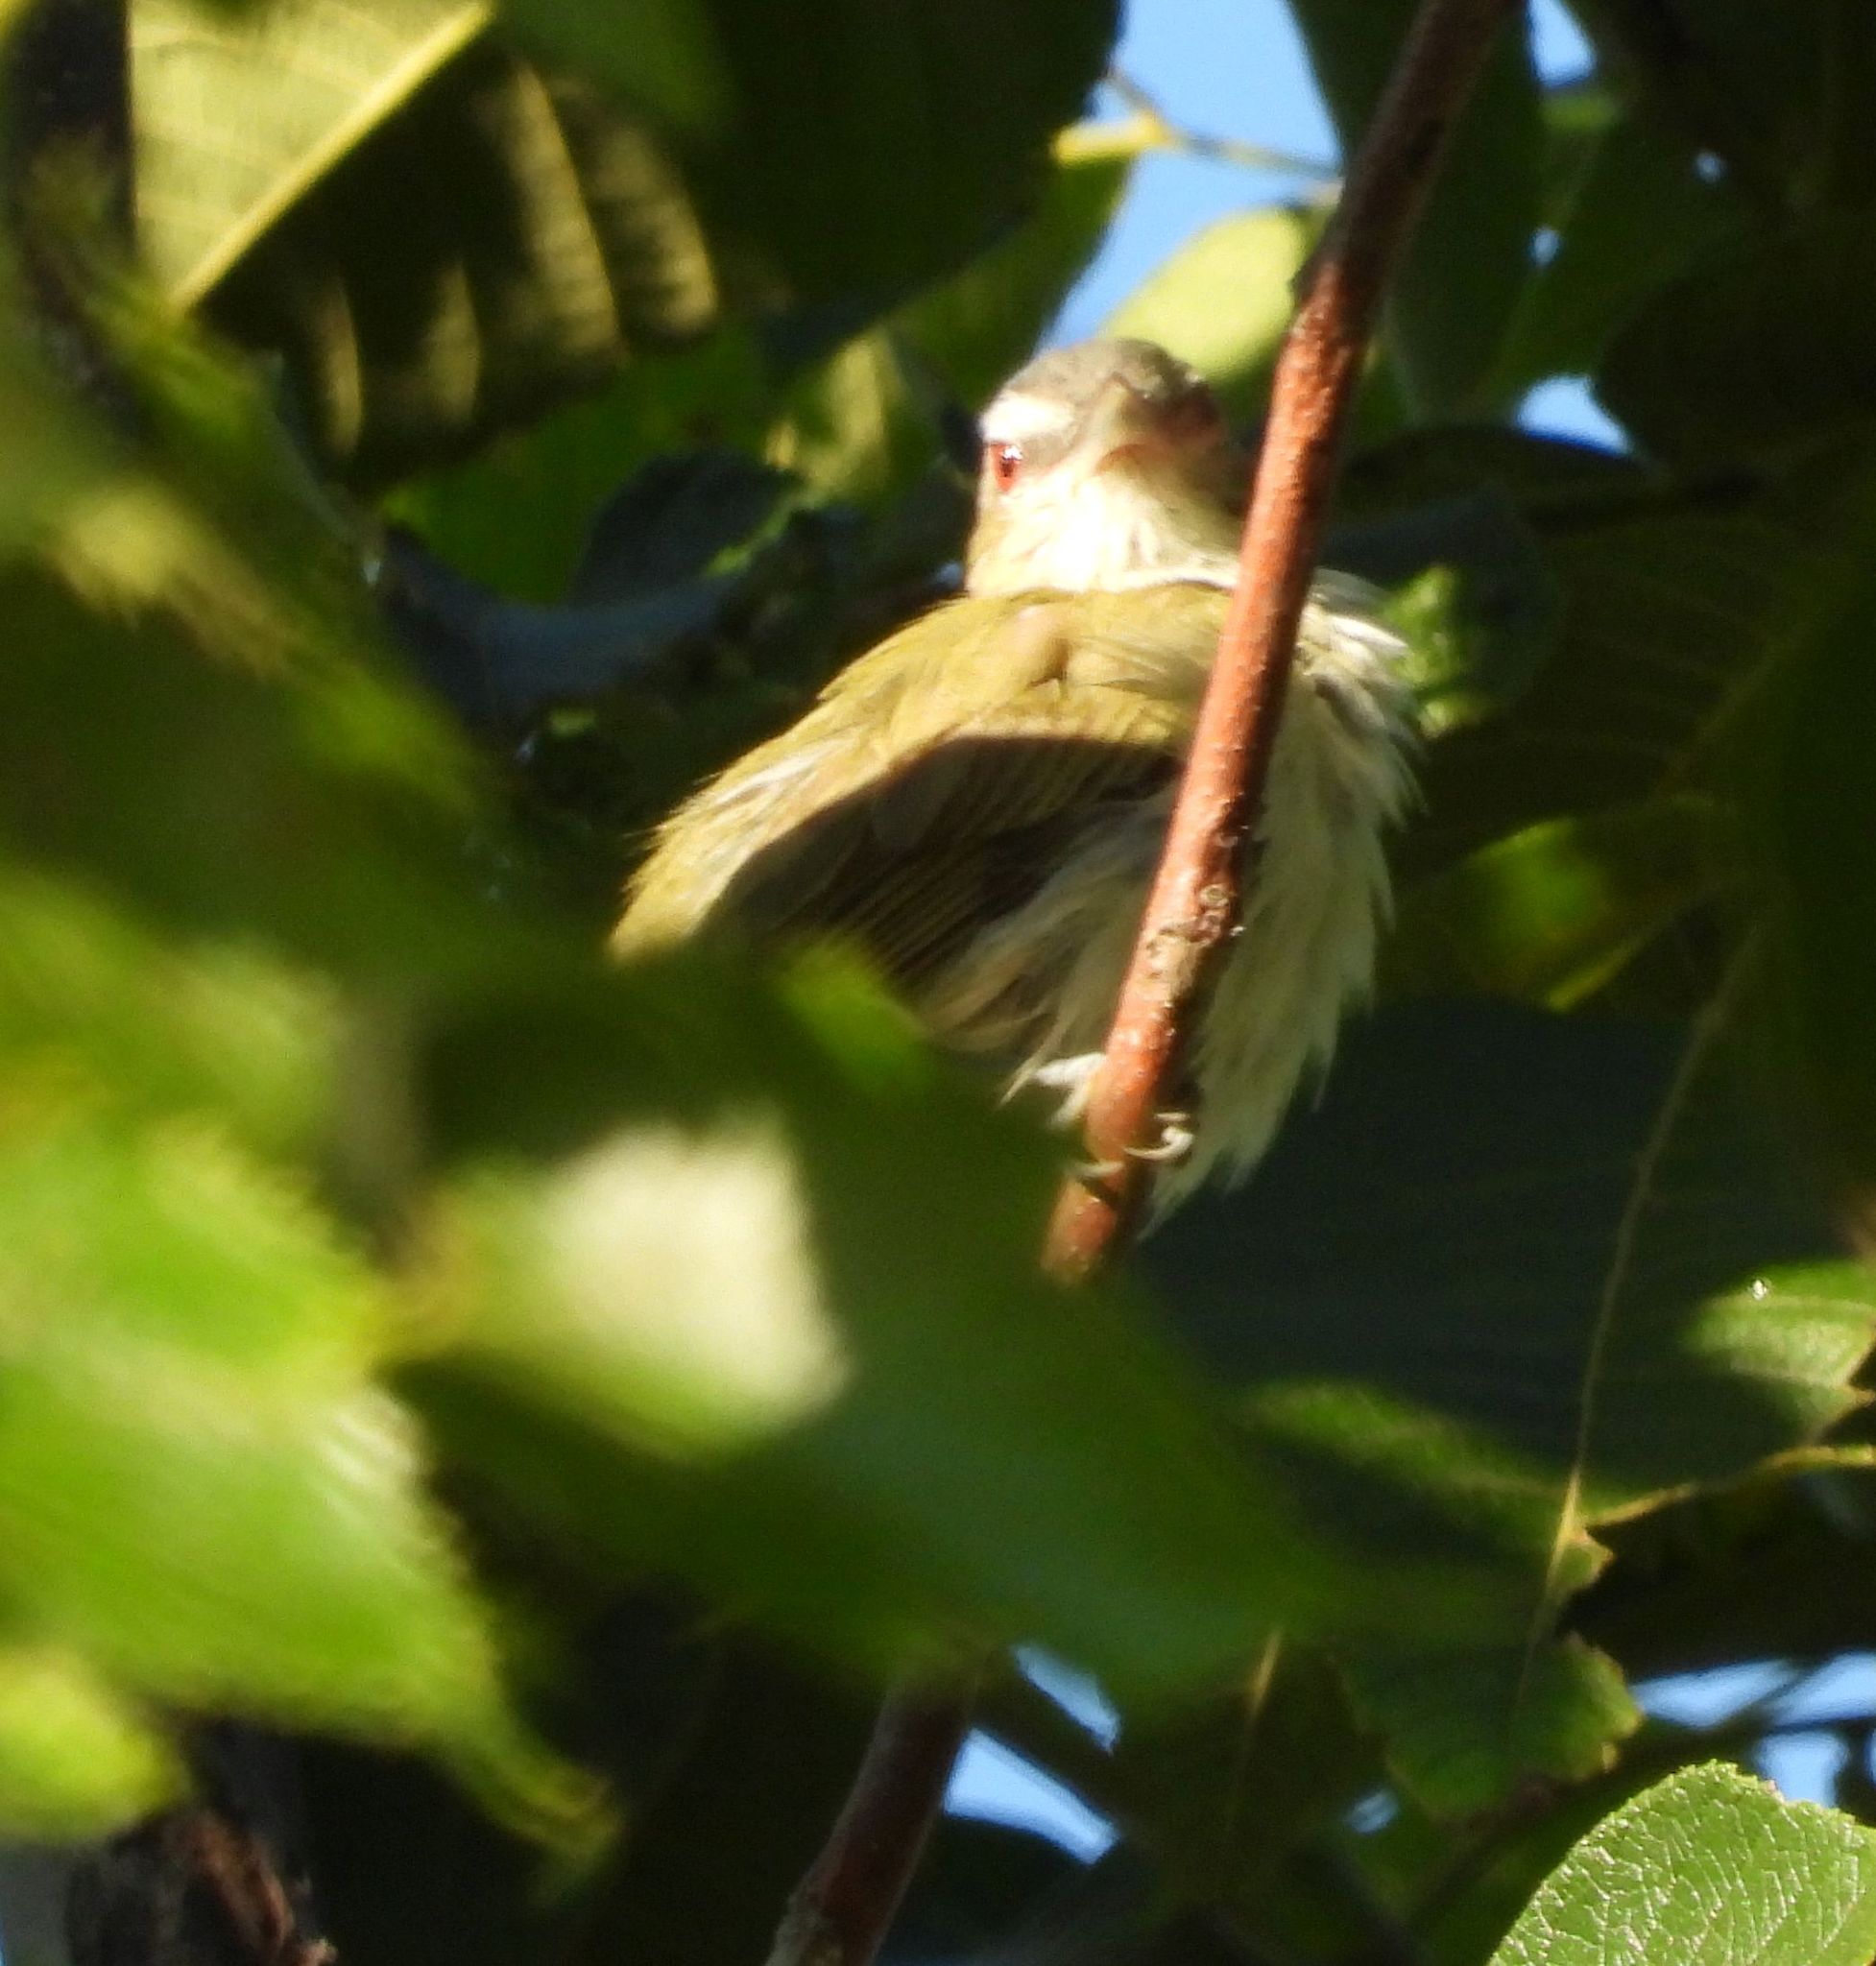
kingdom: Animalia
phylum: Chordata
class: Aves
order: Passeriformes
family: Vireonidae
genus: Vireo
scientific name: Vireo olivaceus
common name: Red-eyed vireo
